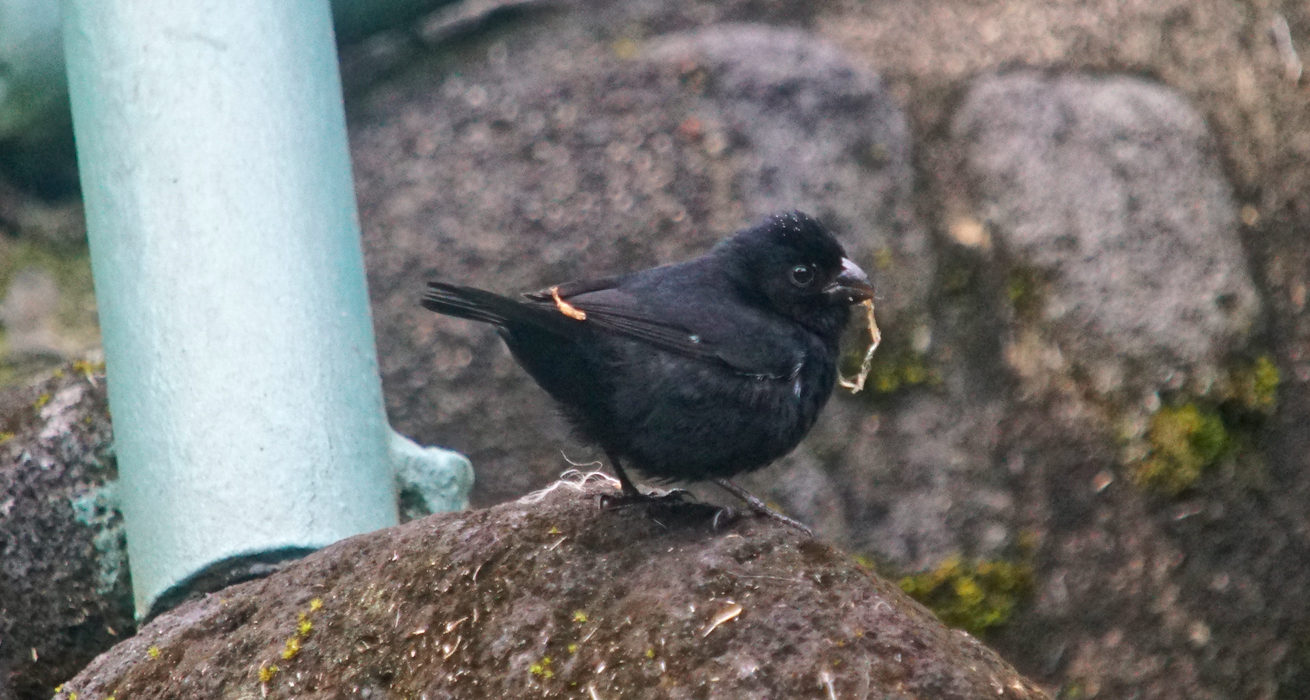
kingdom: Animalia
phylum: Chordata
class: Aves
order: Passeriformes
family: Thraupidae
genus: Sporophila
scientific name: Sporophila corvina
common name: Variable seedeater
